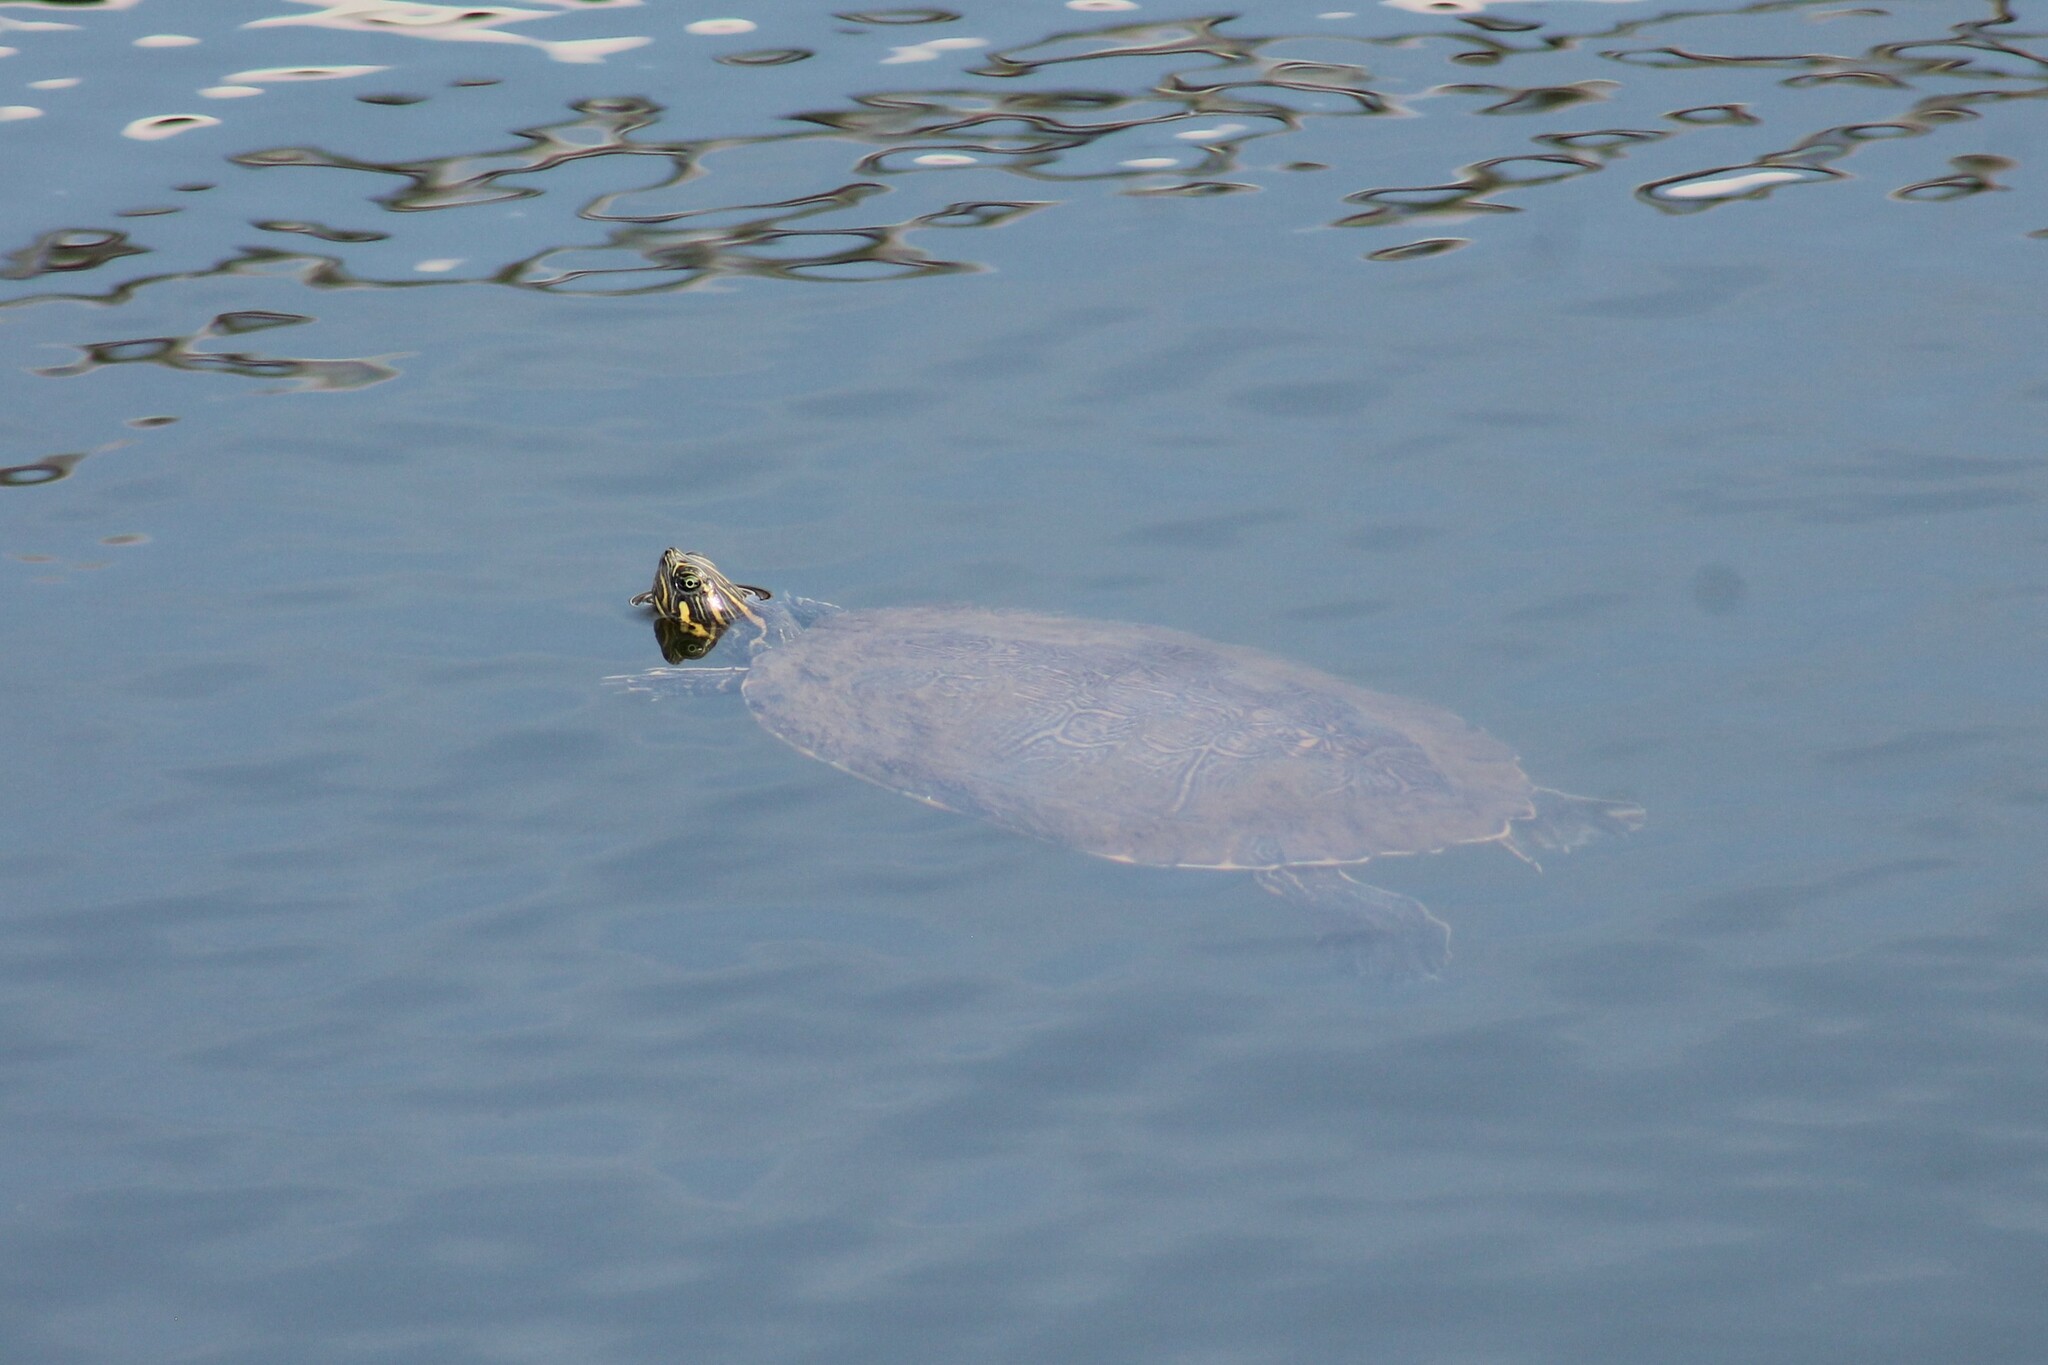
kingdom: Animalia
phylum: Chordata
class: Testudines
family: Emydidae
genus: Pseudemys
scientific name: Pseudemys concinna
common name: Eastern river cooter
